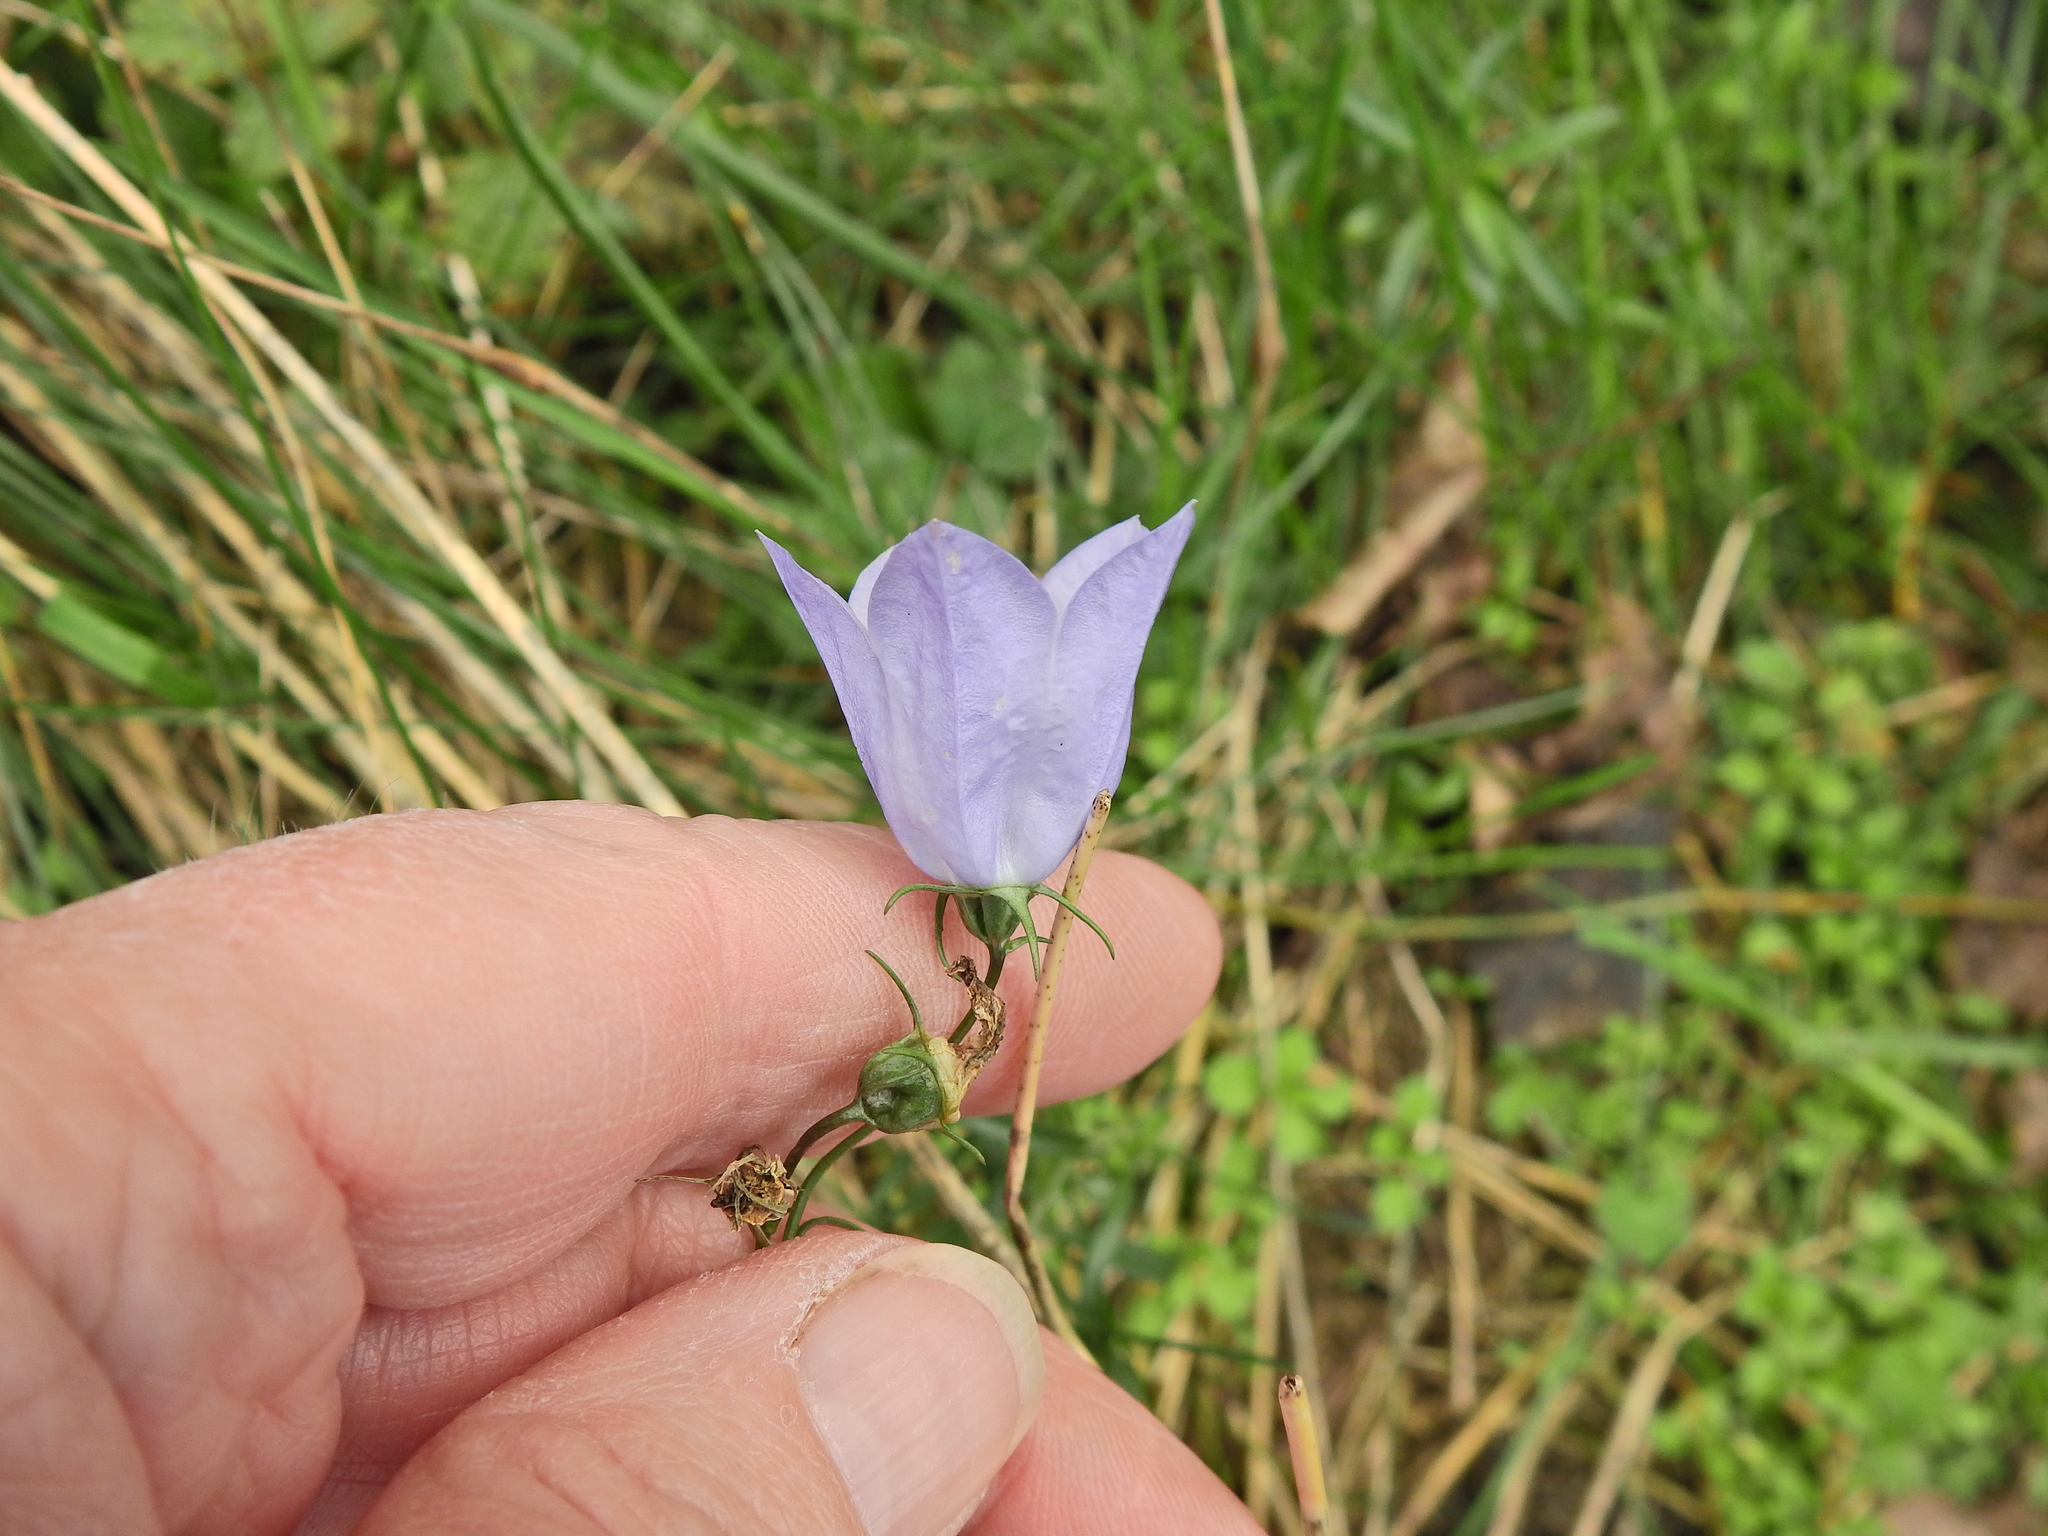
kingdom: Plantae
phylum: Tracheophyta
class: Magnoliopsida
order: Asterales
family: Campanulaceae
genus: Campanula
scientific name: Campanula rotundifolia
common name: Harebell
